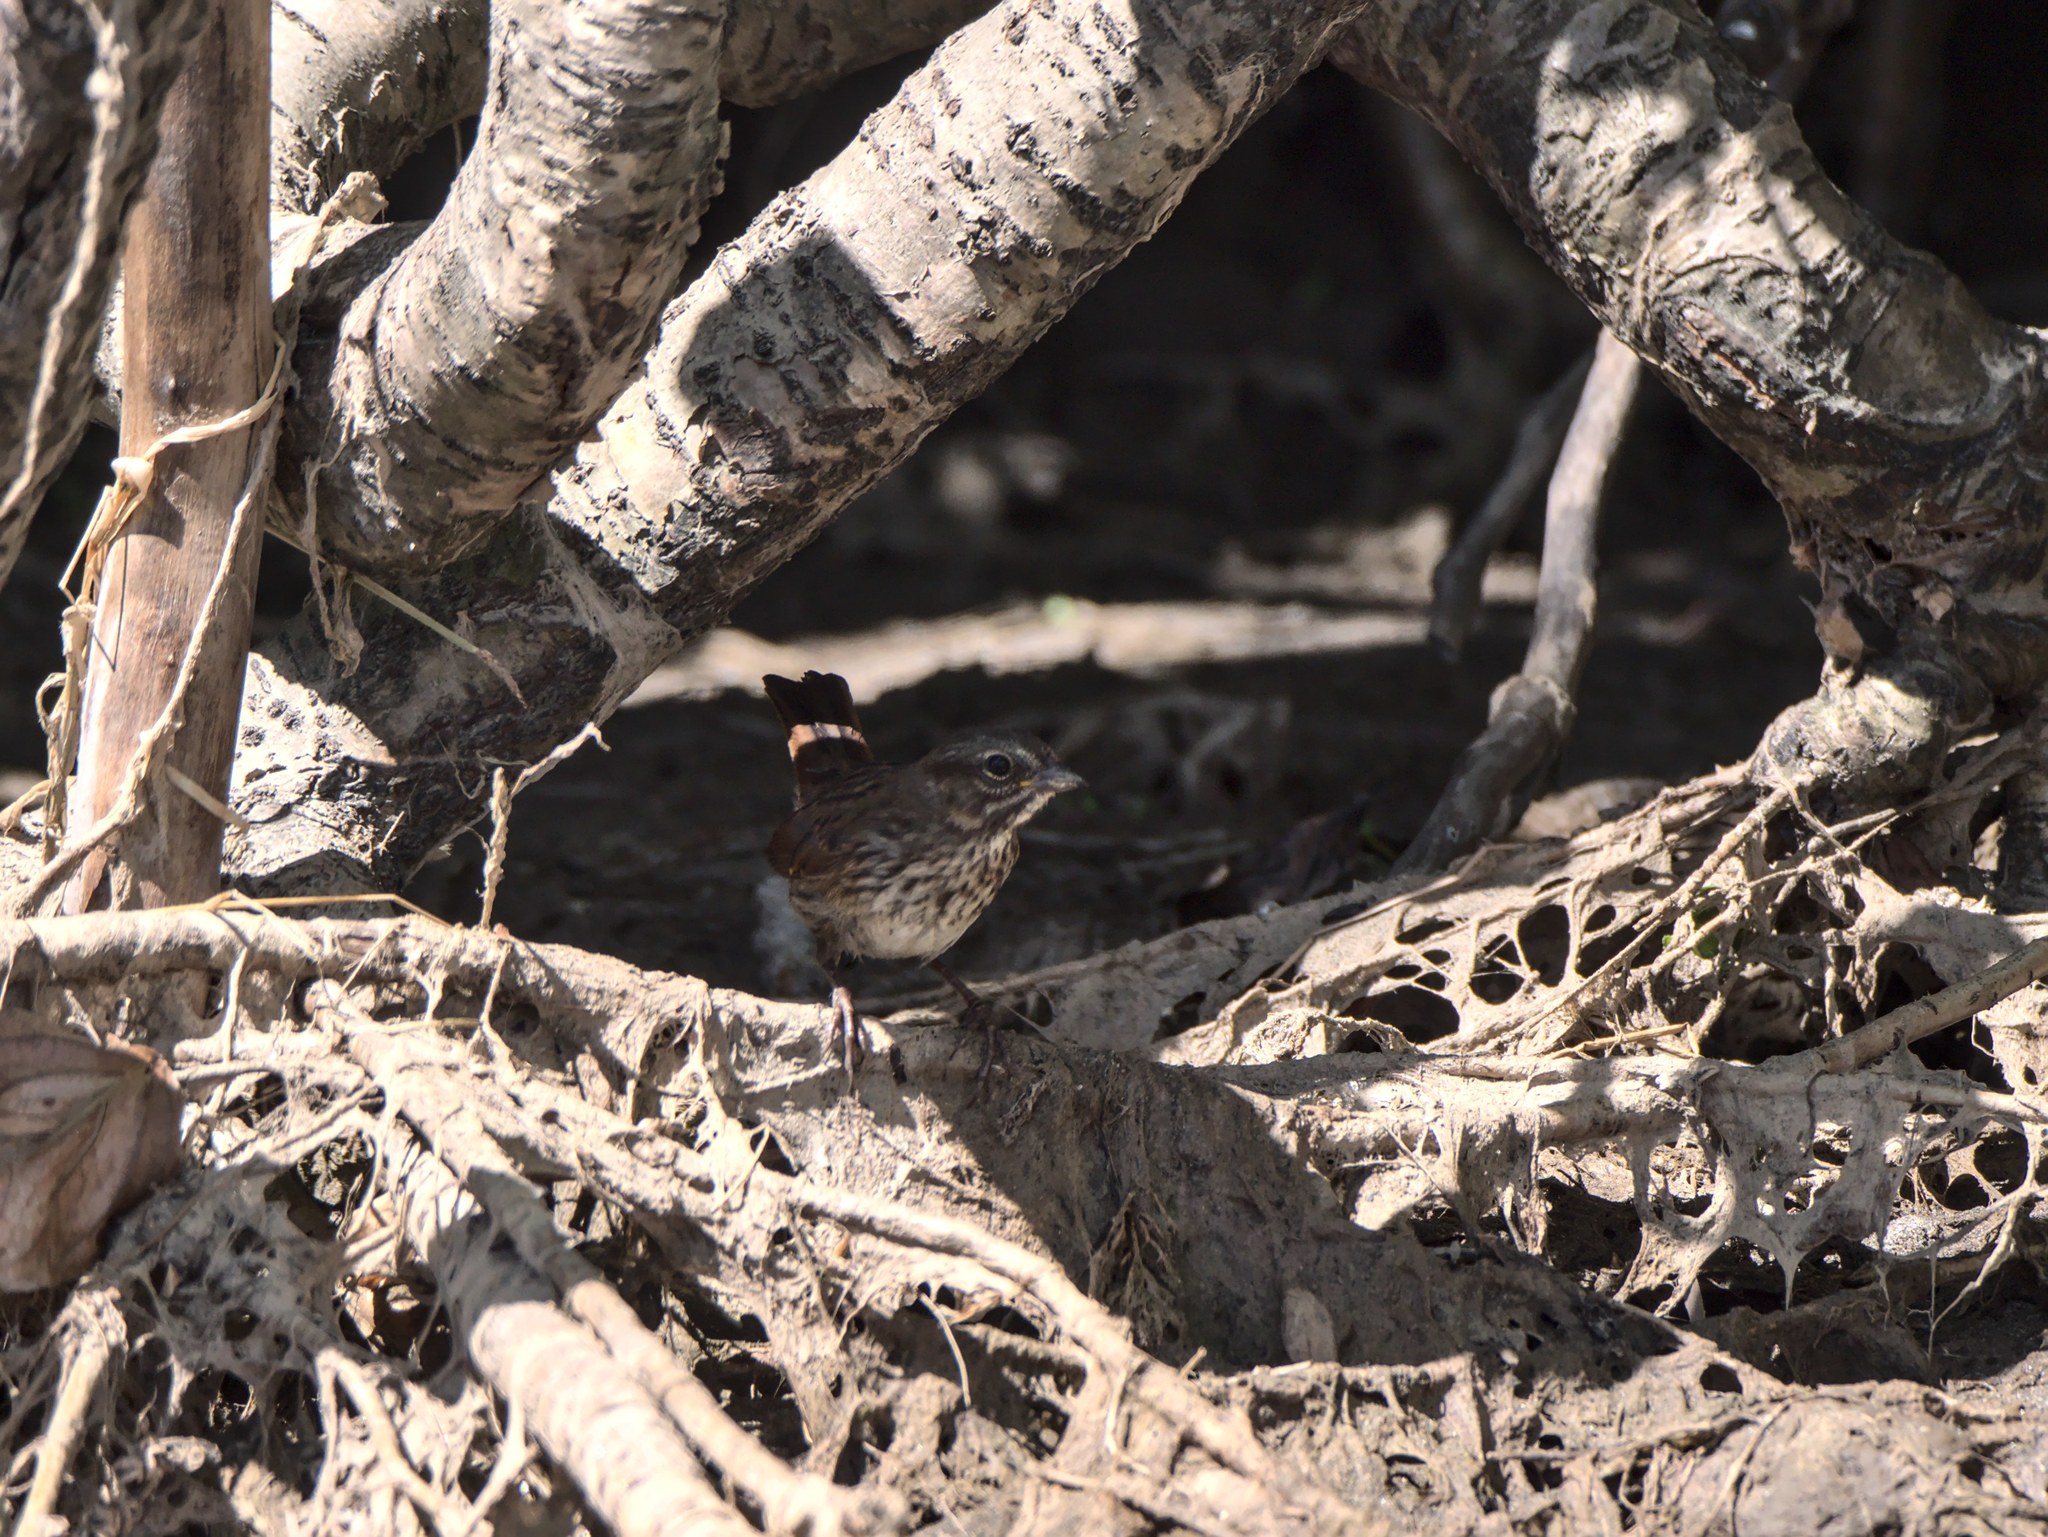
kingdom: Animalia
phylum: Chordata
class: Aves
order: Passeriformes
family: Passerellidae
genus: Melospiza
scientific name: Melospiza melodia
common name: Song sparrow
